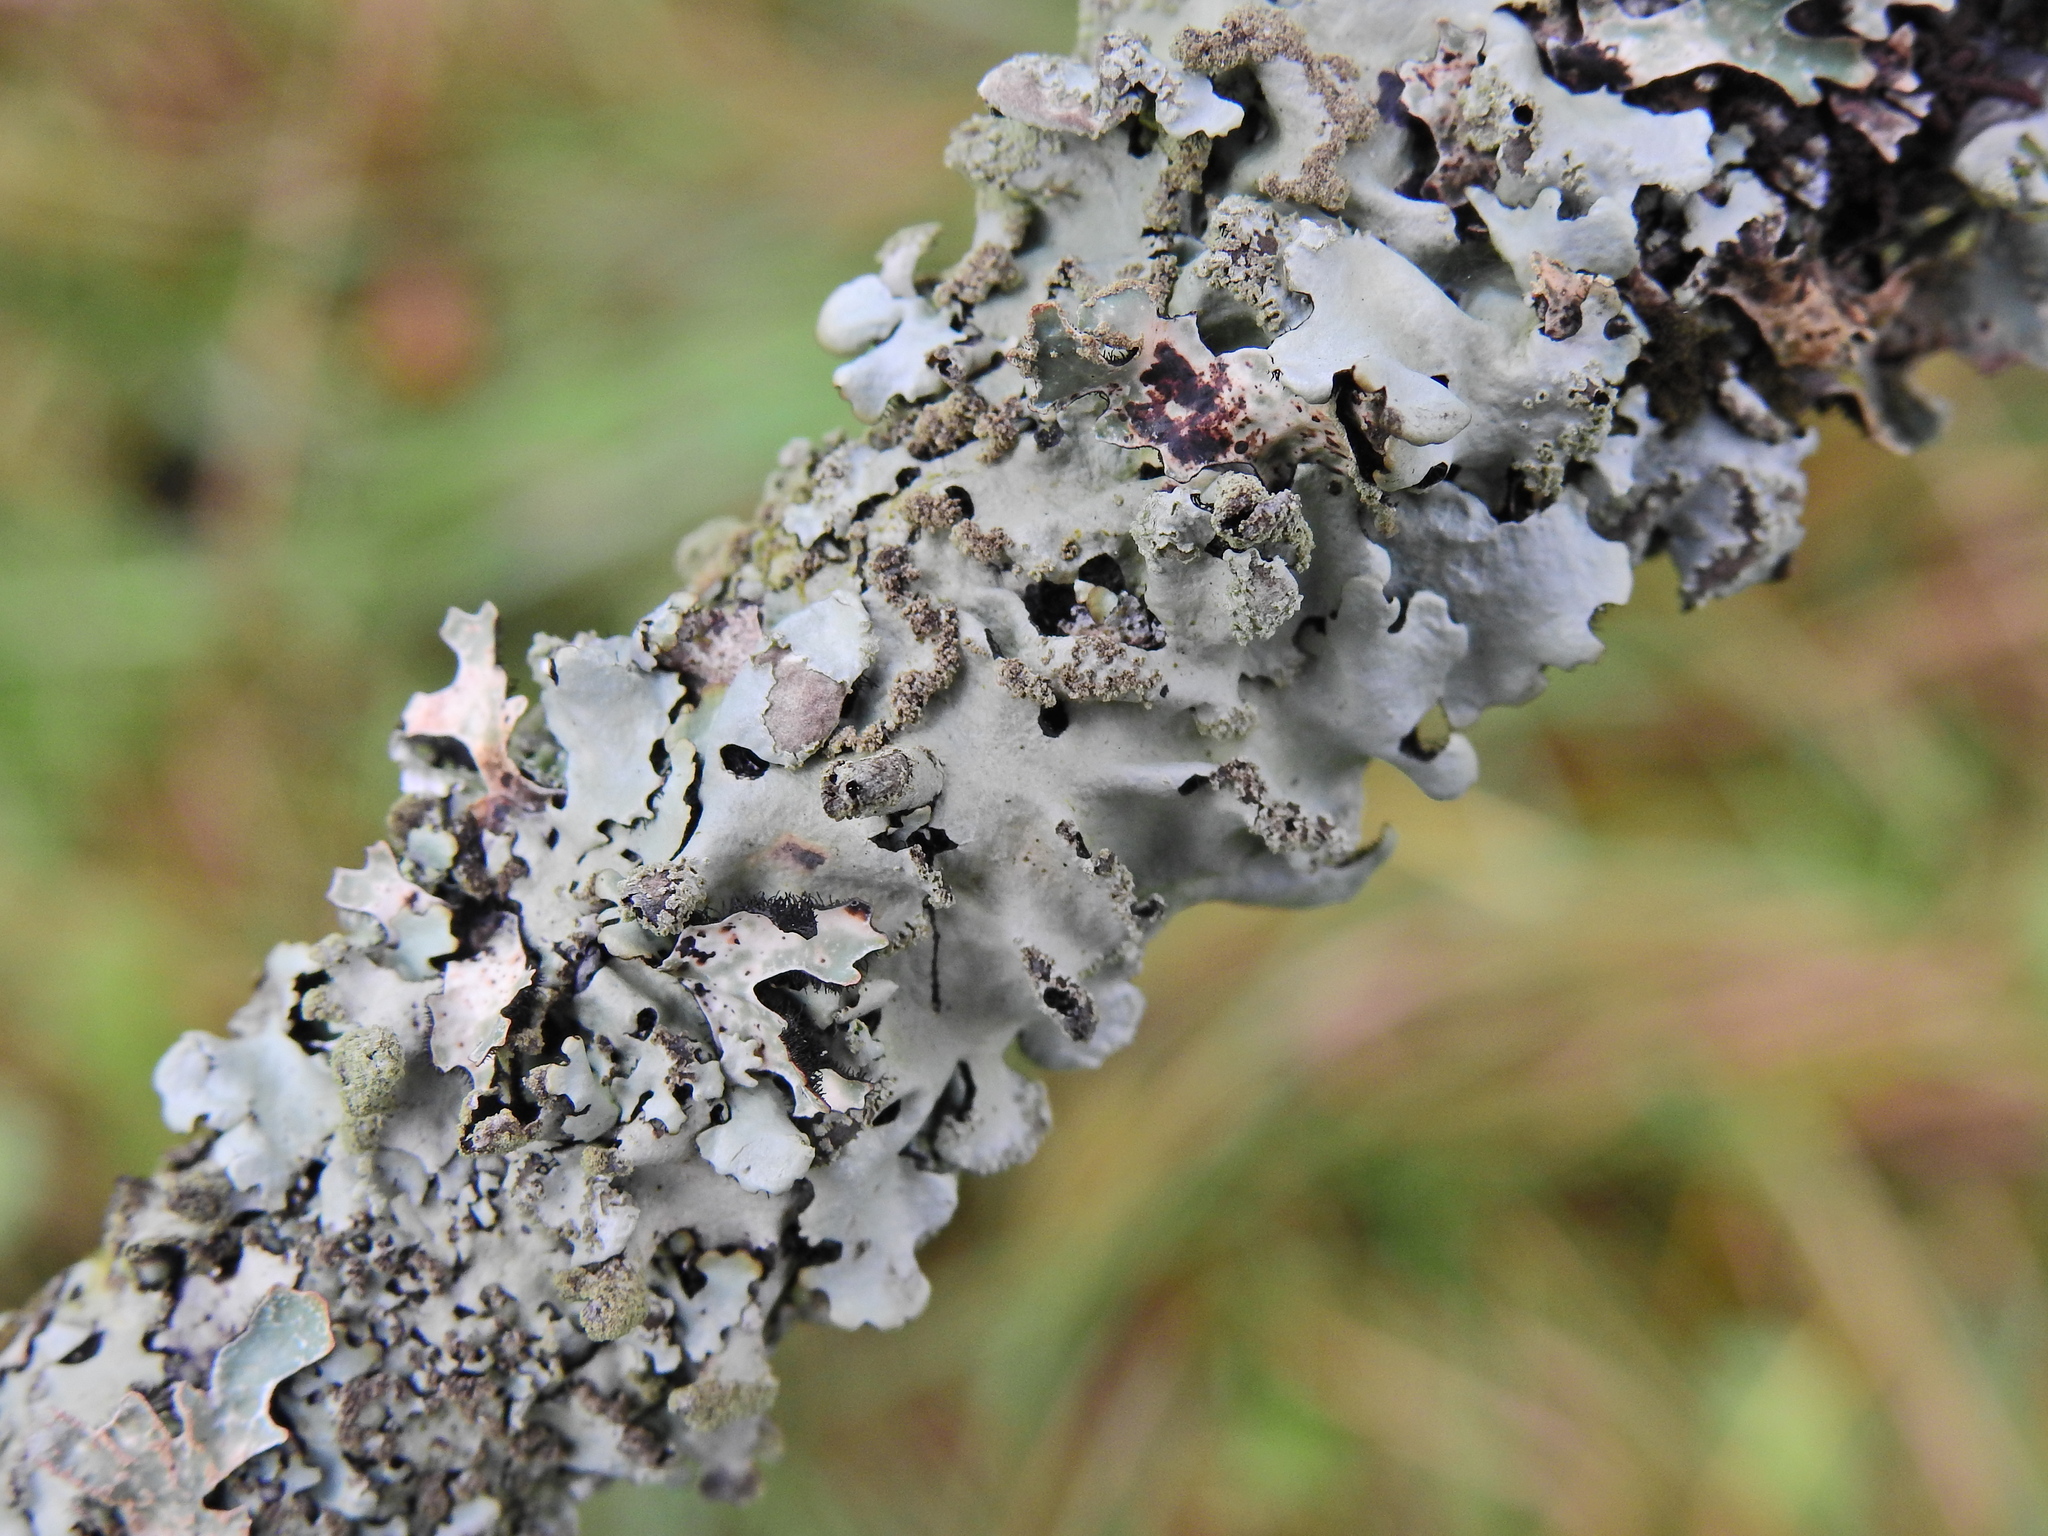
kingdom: Fungi
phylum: Ascomycota
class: Lecanoromycetes
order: Lecanorales
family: Parmeliaceae
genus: Hypotrachyna
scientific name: Hypotrachyna afrorevoluta
